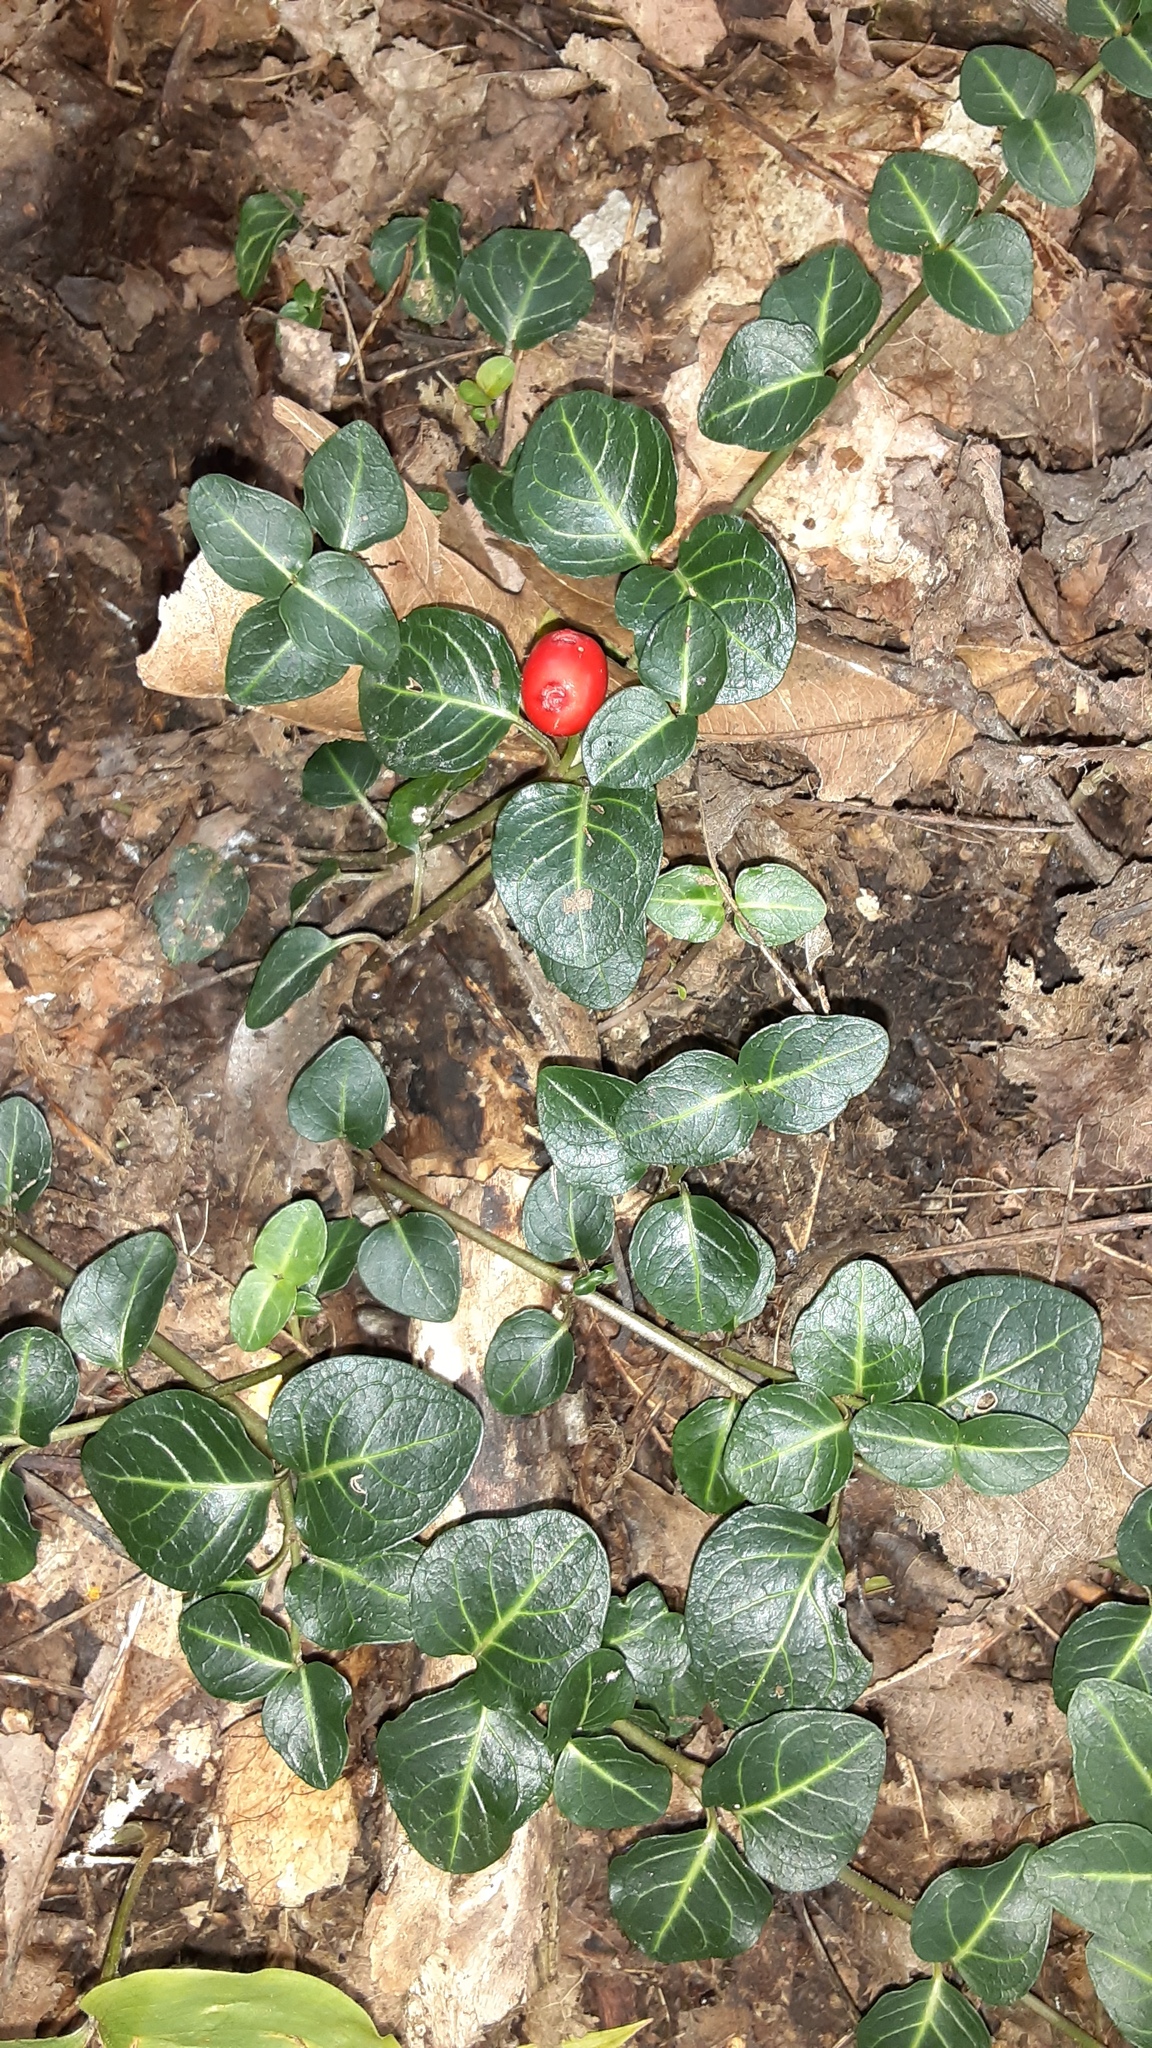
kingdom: Plantae
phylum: Tracheophyta
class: Magnoliopsida
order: Gentianales
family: Rubiaceae
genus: Mitchella
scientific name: Mitchella repens
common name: Partridge-berry
